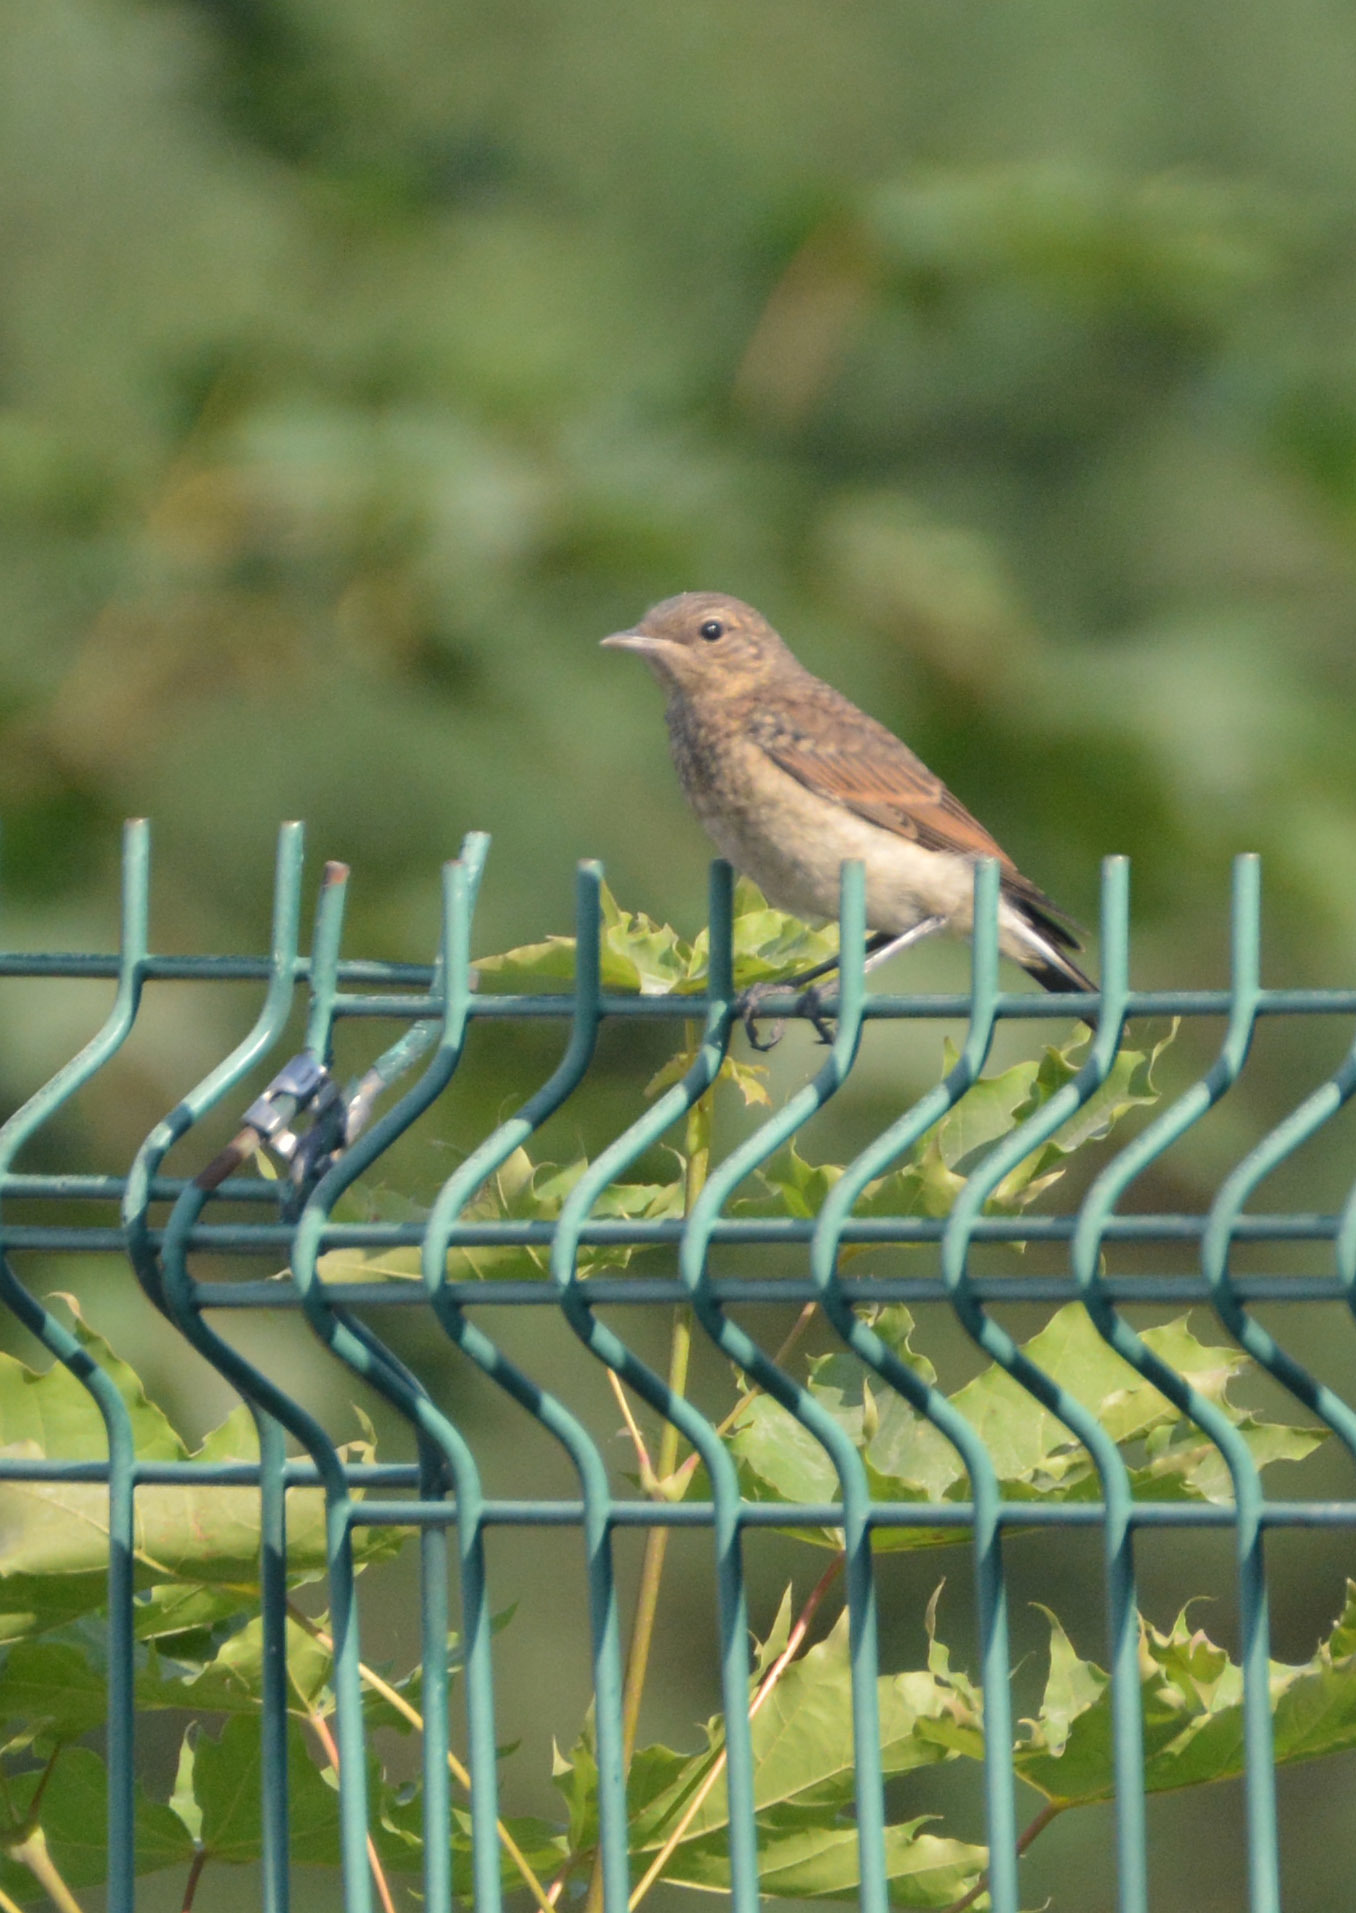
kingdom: Animalia
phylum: Chordata
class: Aves
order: Passeriformes
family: Muscicapidae
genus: Oenanthe
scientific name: Oenanthe oenanthe
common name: Northern wheatear
